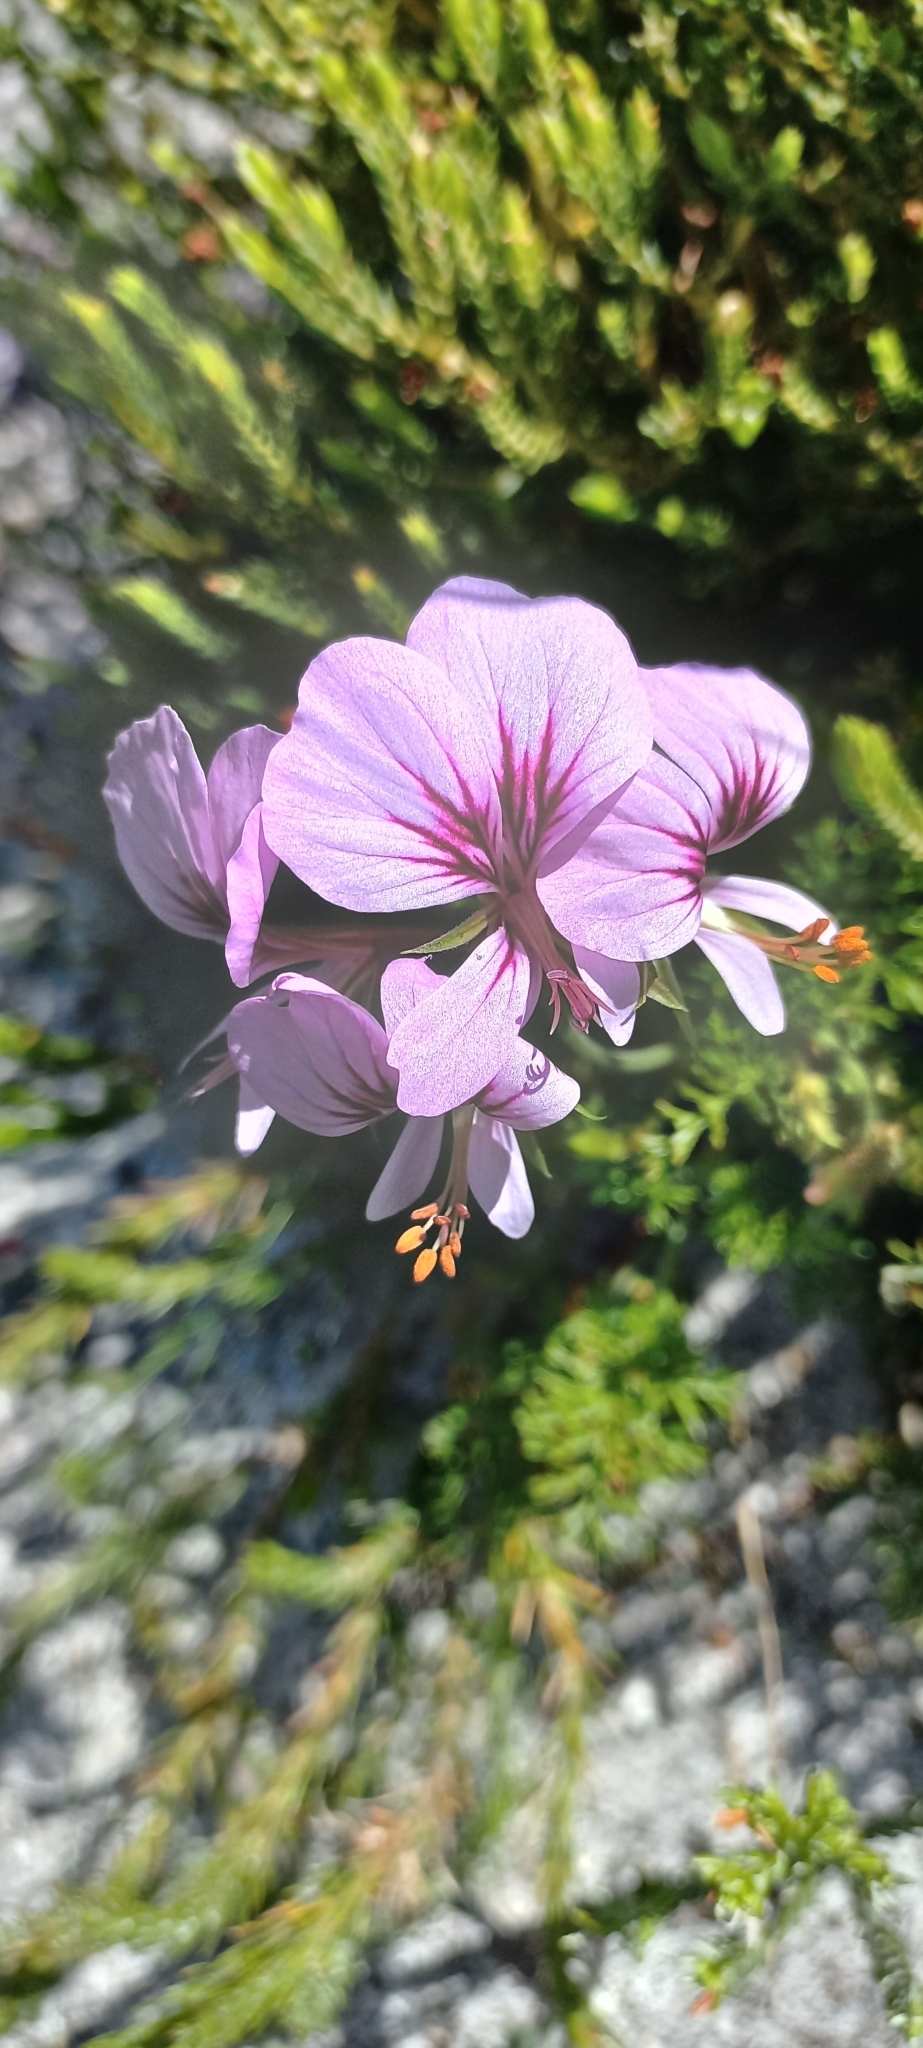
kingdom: Plantae
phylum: Tracheophyta
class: Magnoliopsida
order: Geraniales
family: Geraniaceae
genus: Pelargonium
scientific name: Pelargonium myrrhifolium
